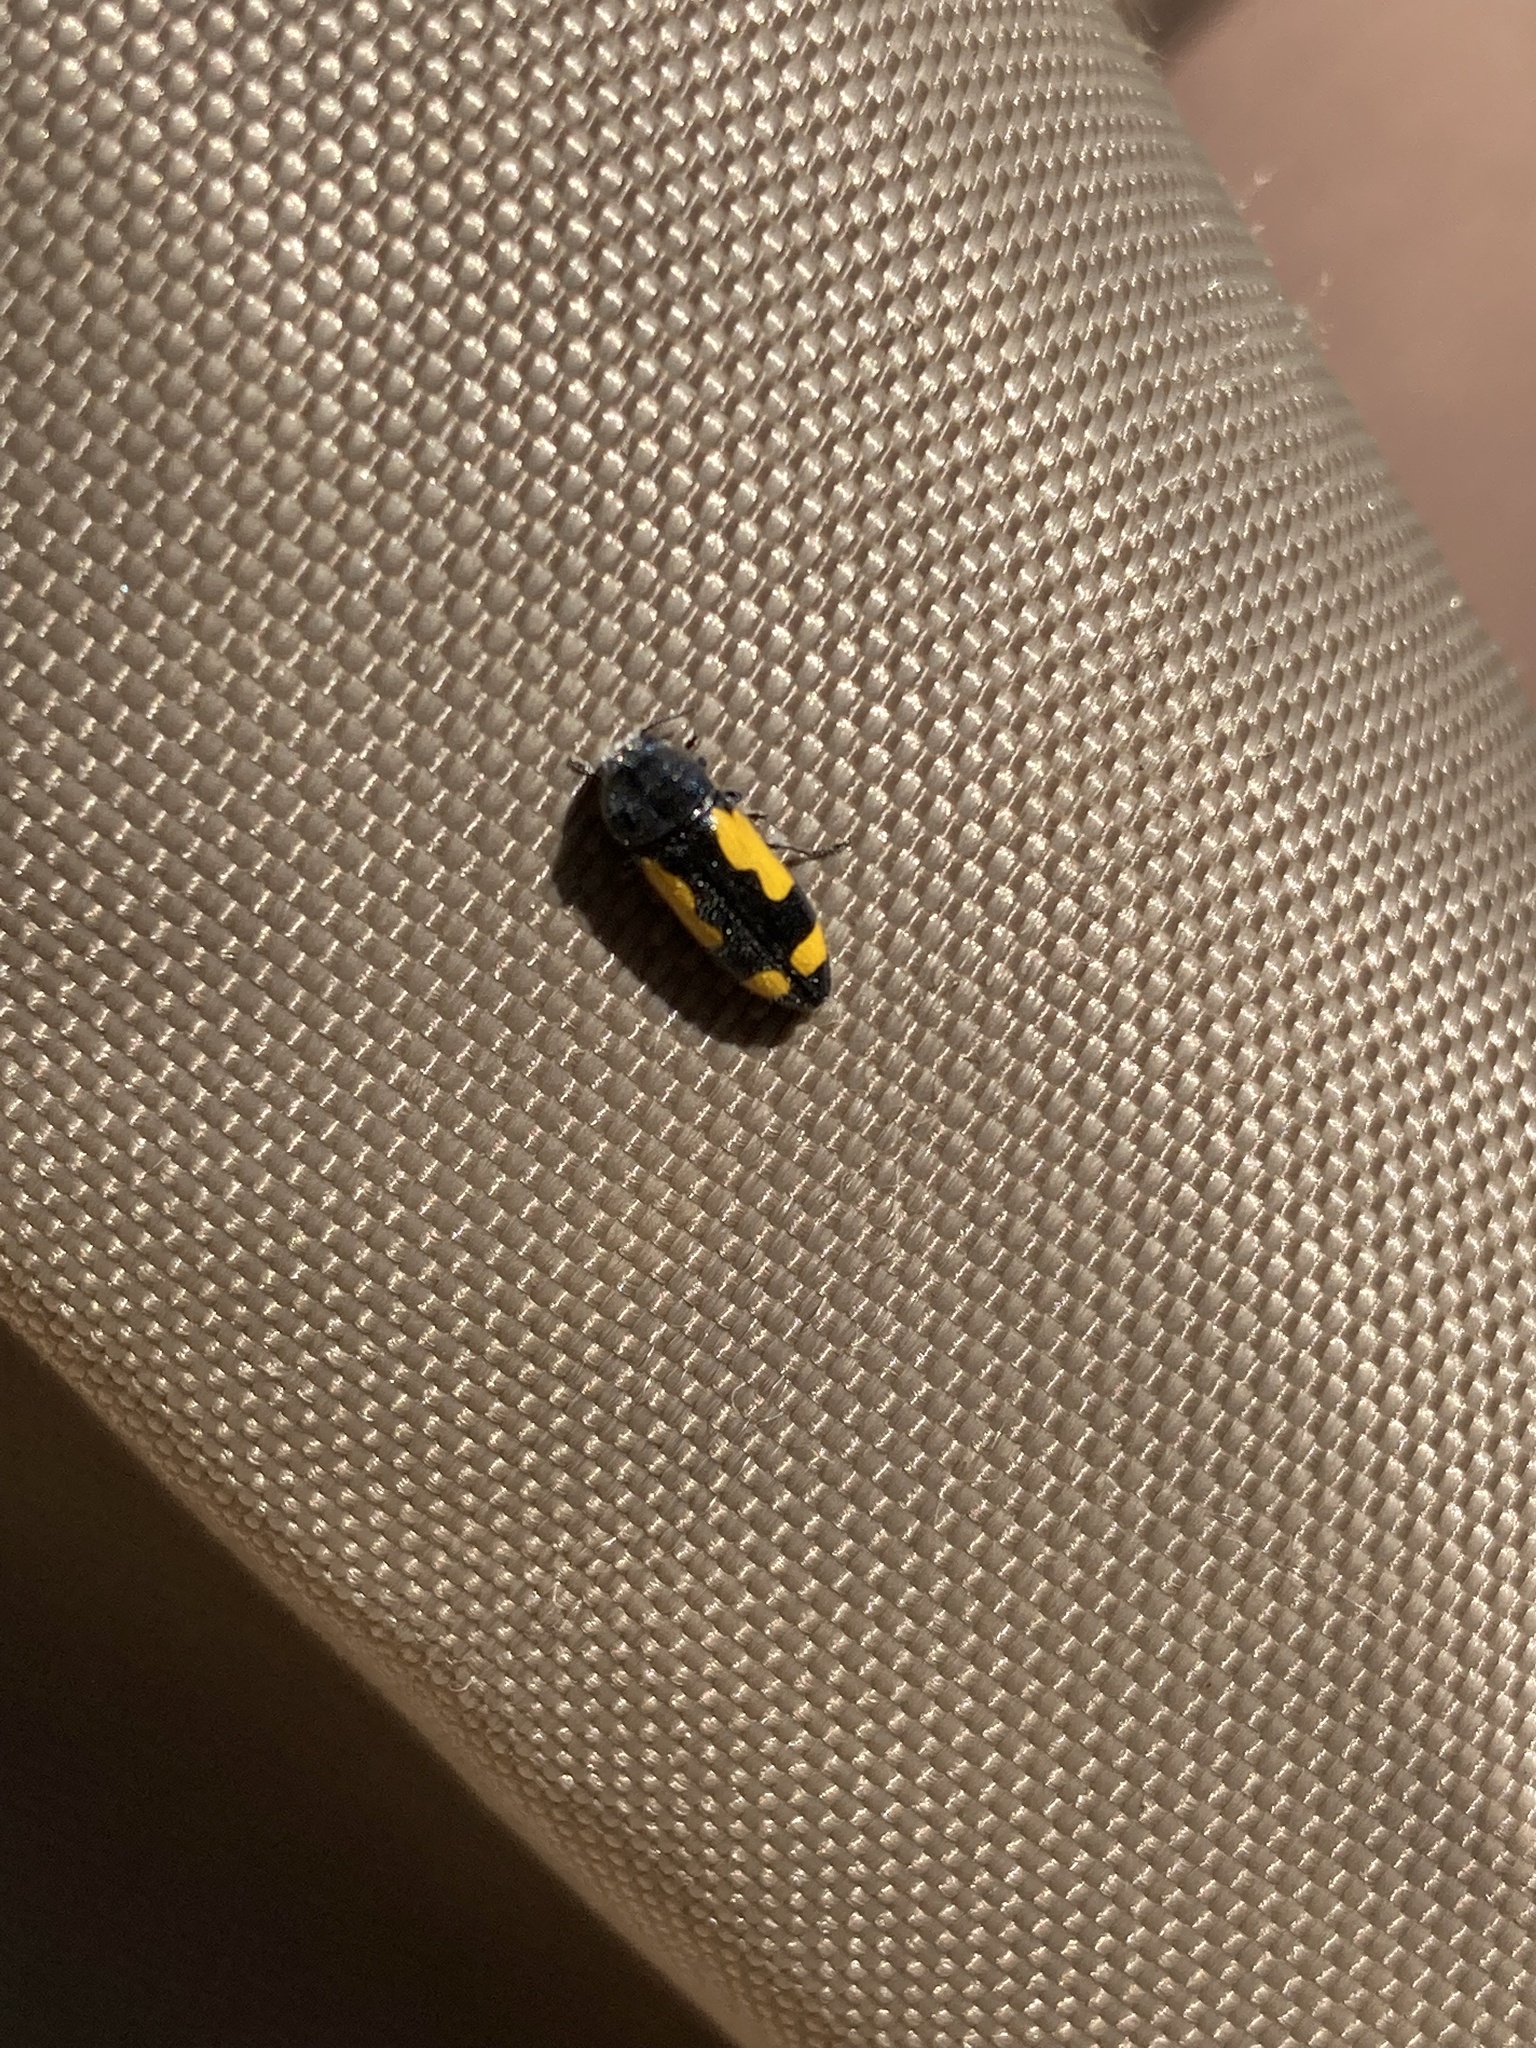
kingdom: Animalia
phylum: Arthropoda
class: Insecta
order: Coleoptera
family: Buprestidae
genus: Ptosima
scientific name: Ptosima gibbicollis
